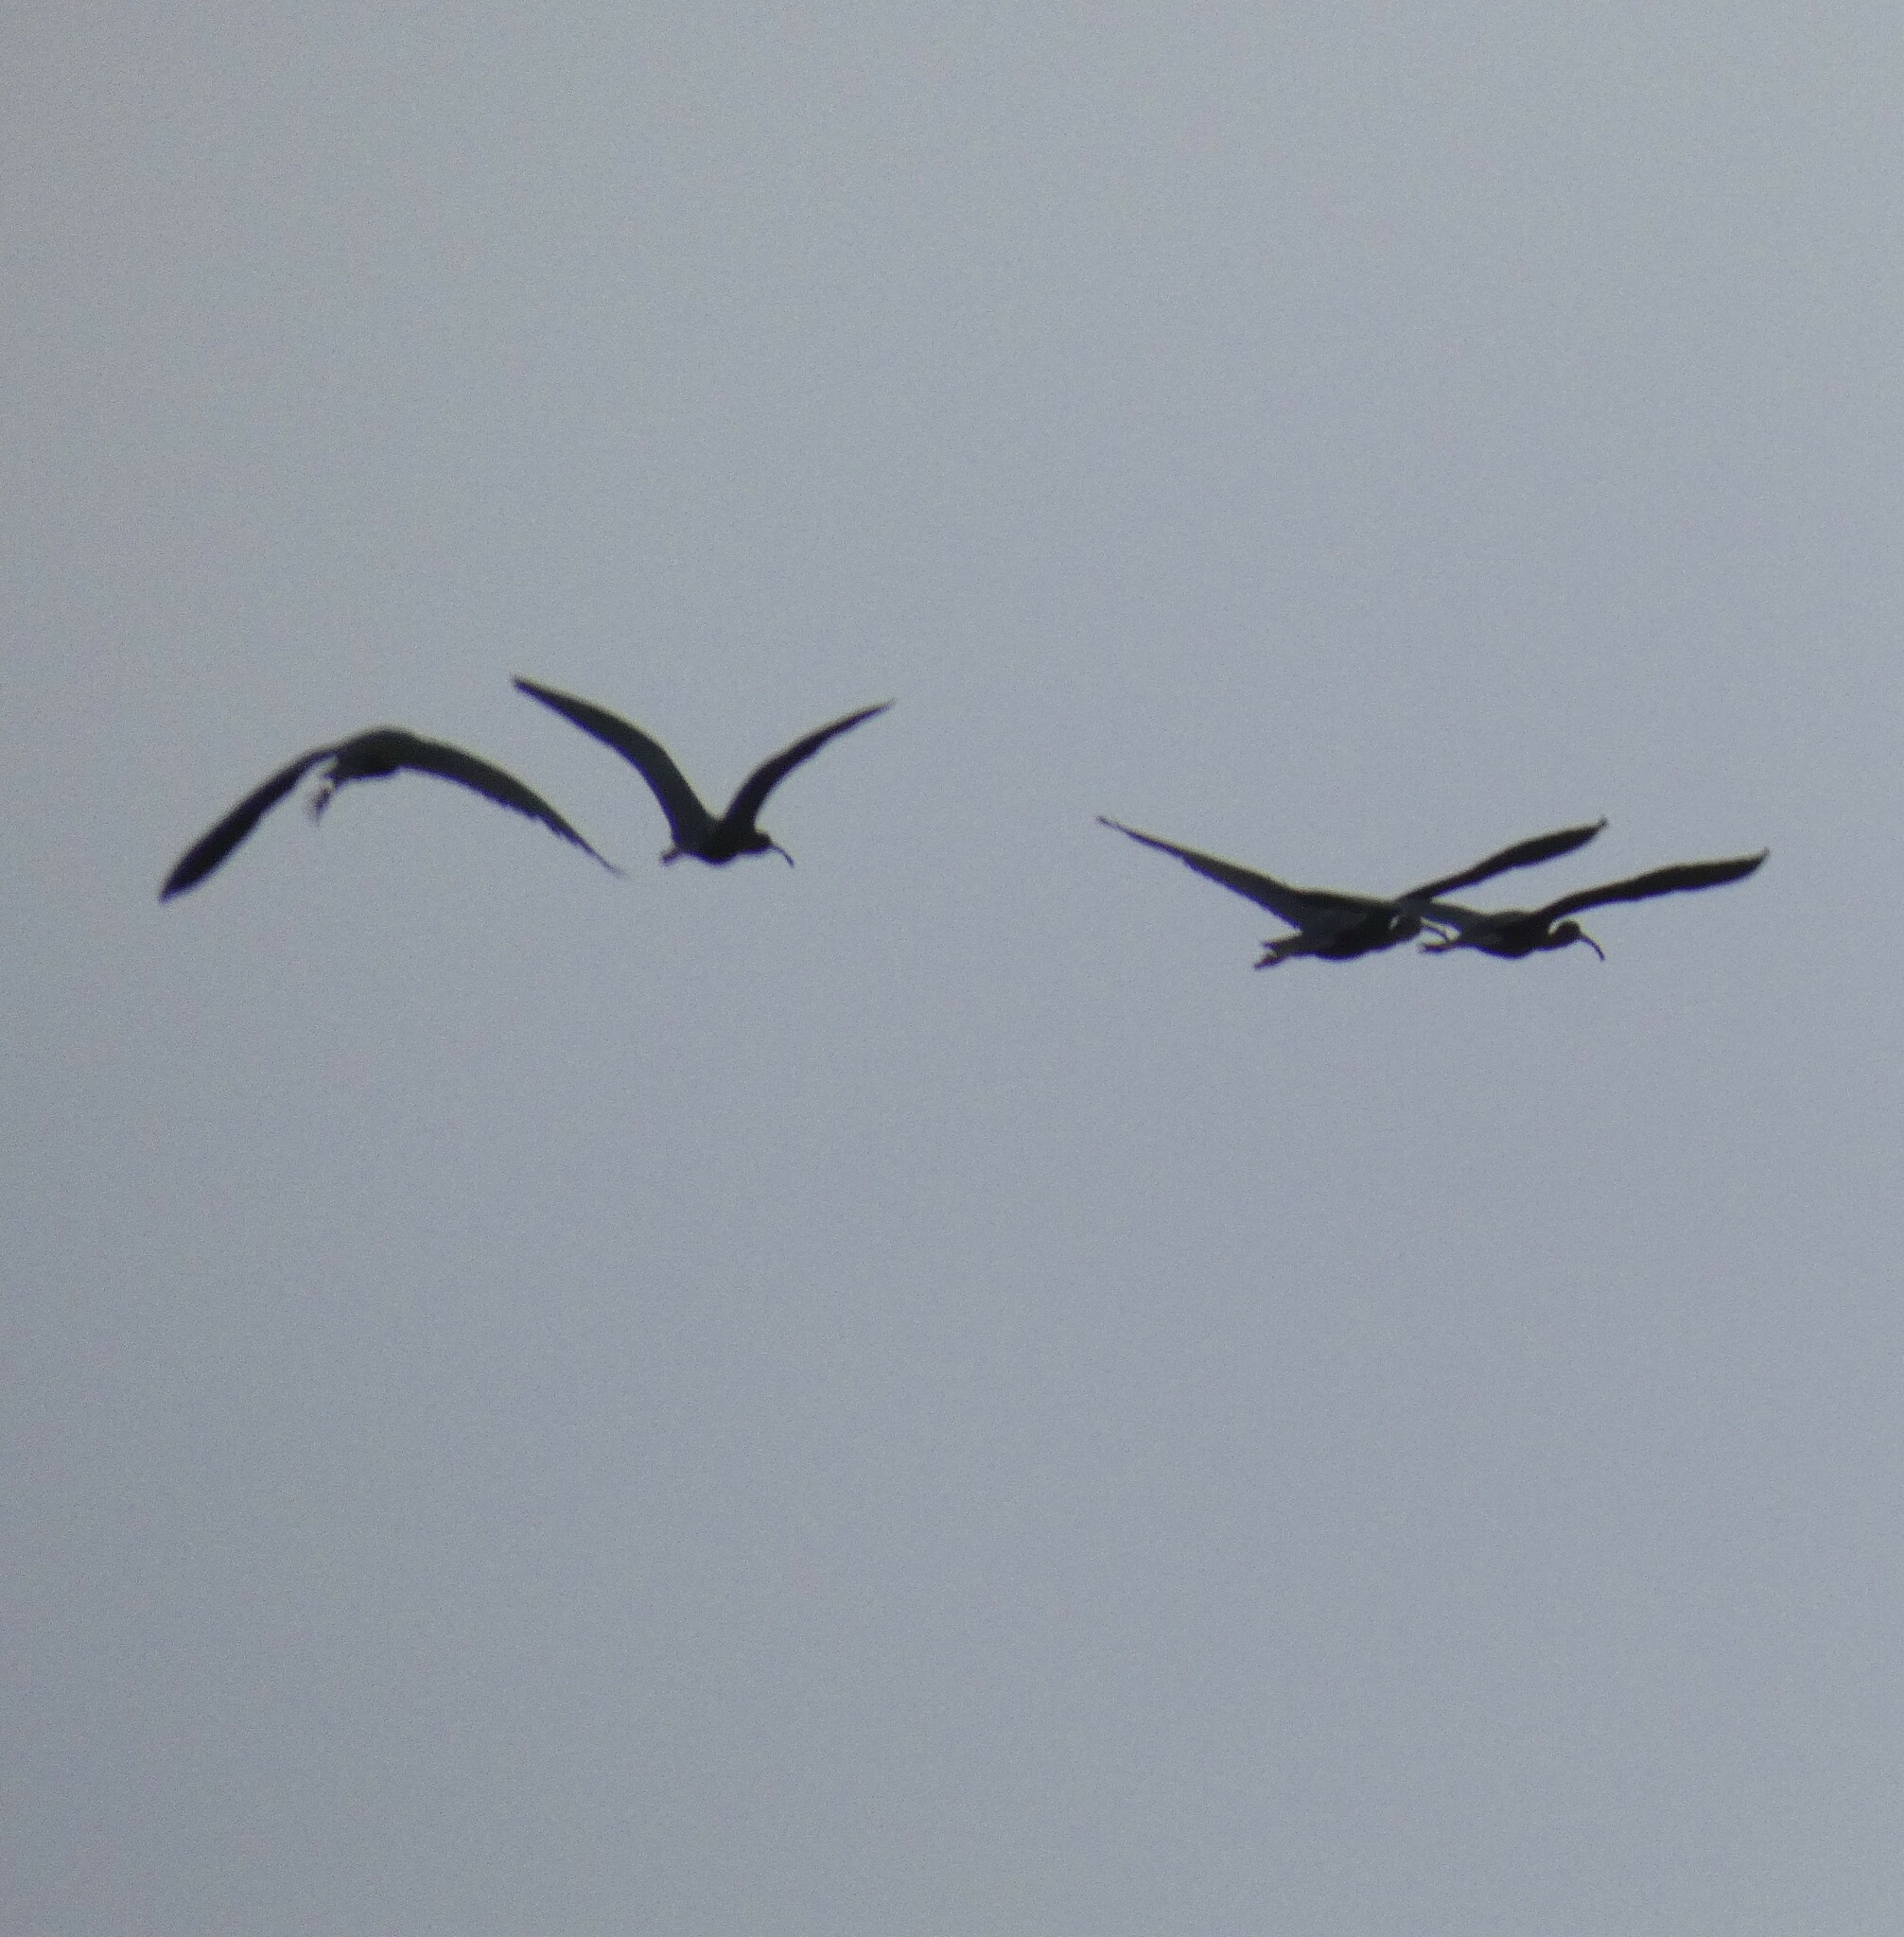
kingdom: Animalia
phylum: Chordata
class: Aves
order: Pelecaniformes
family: Threskiornithidae
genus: Plegadis
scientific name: Plegadis falcinellus
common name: Glossy ibis
